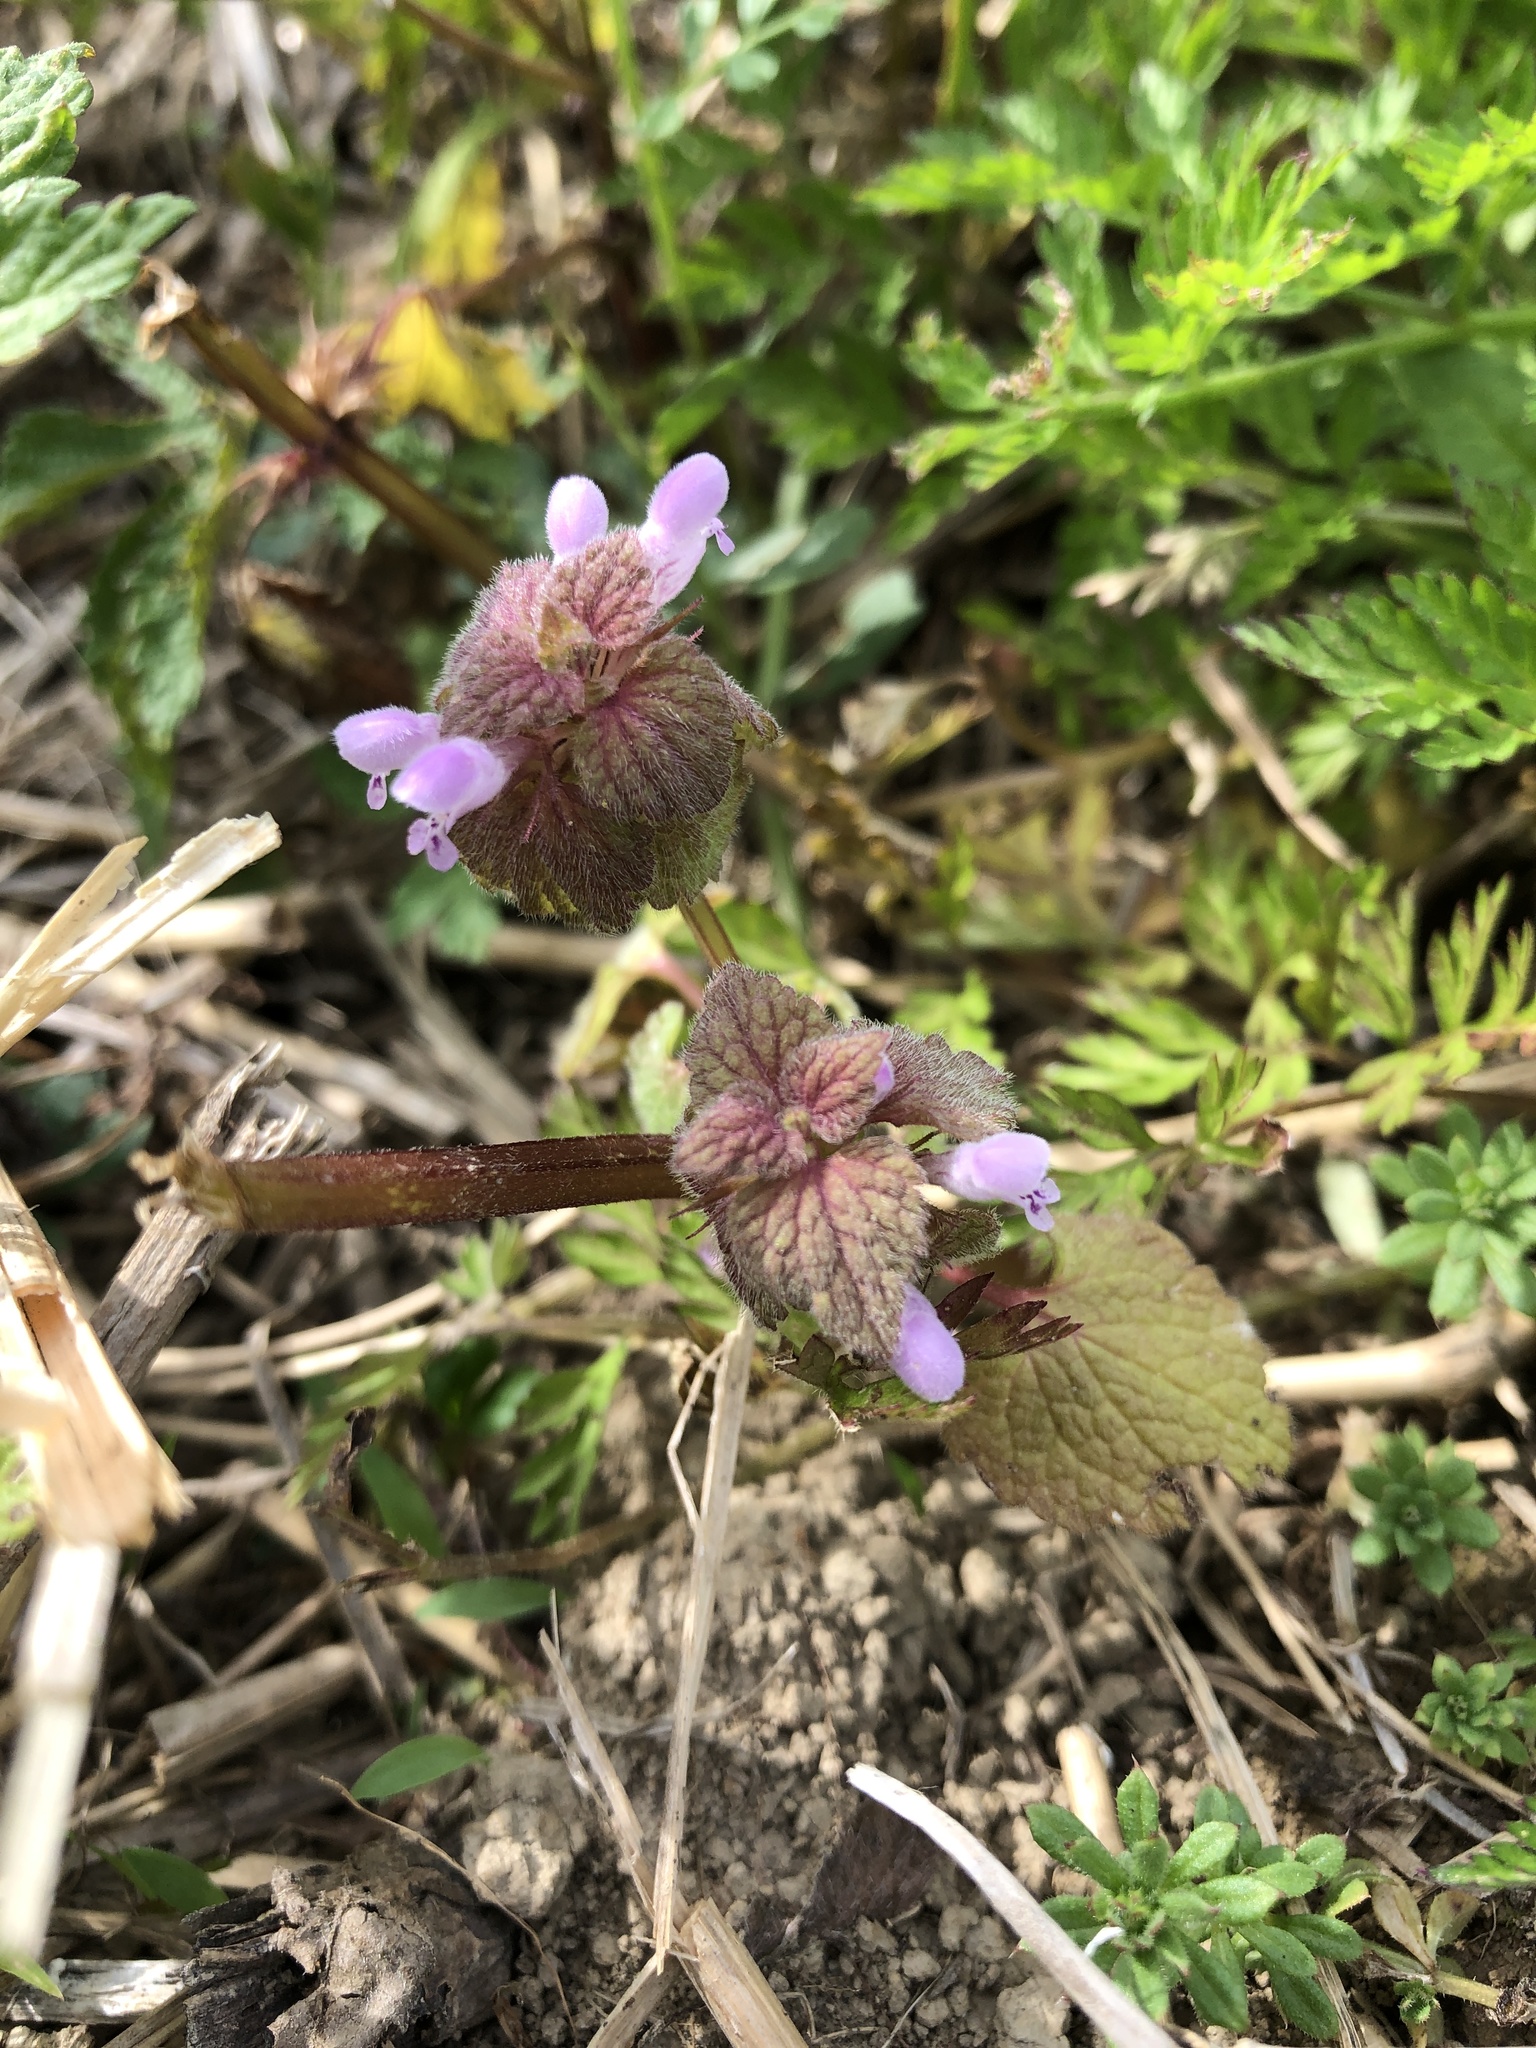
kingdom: Plantae
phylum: Tracheophyta
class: Magnoliopsida
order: Lamiales
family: Lamiaceae
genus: Lamium
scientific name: Lamium purpureum
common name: Red dead-nettle
